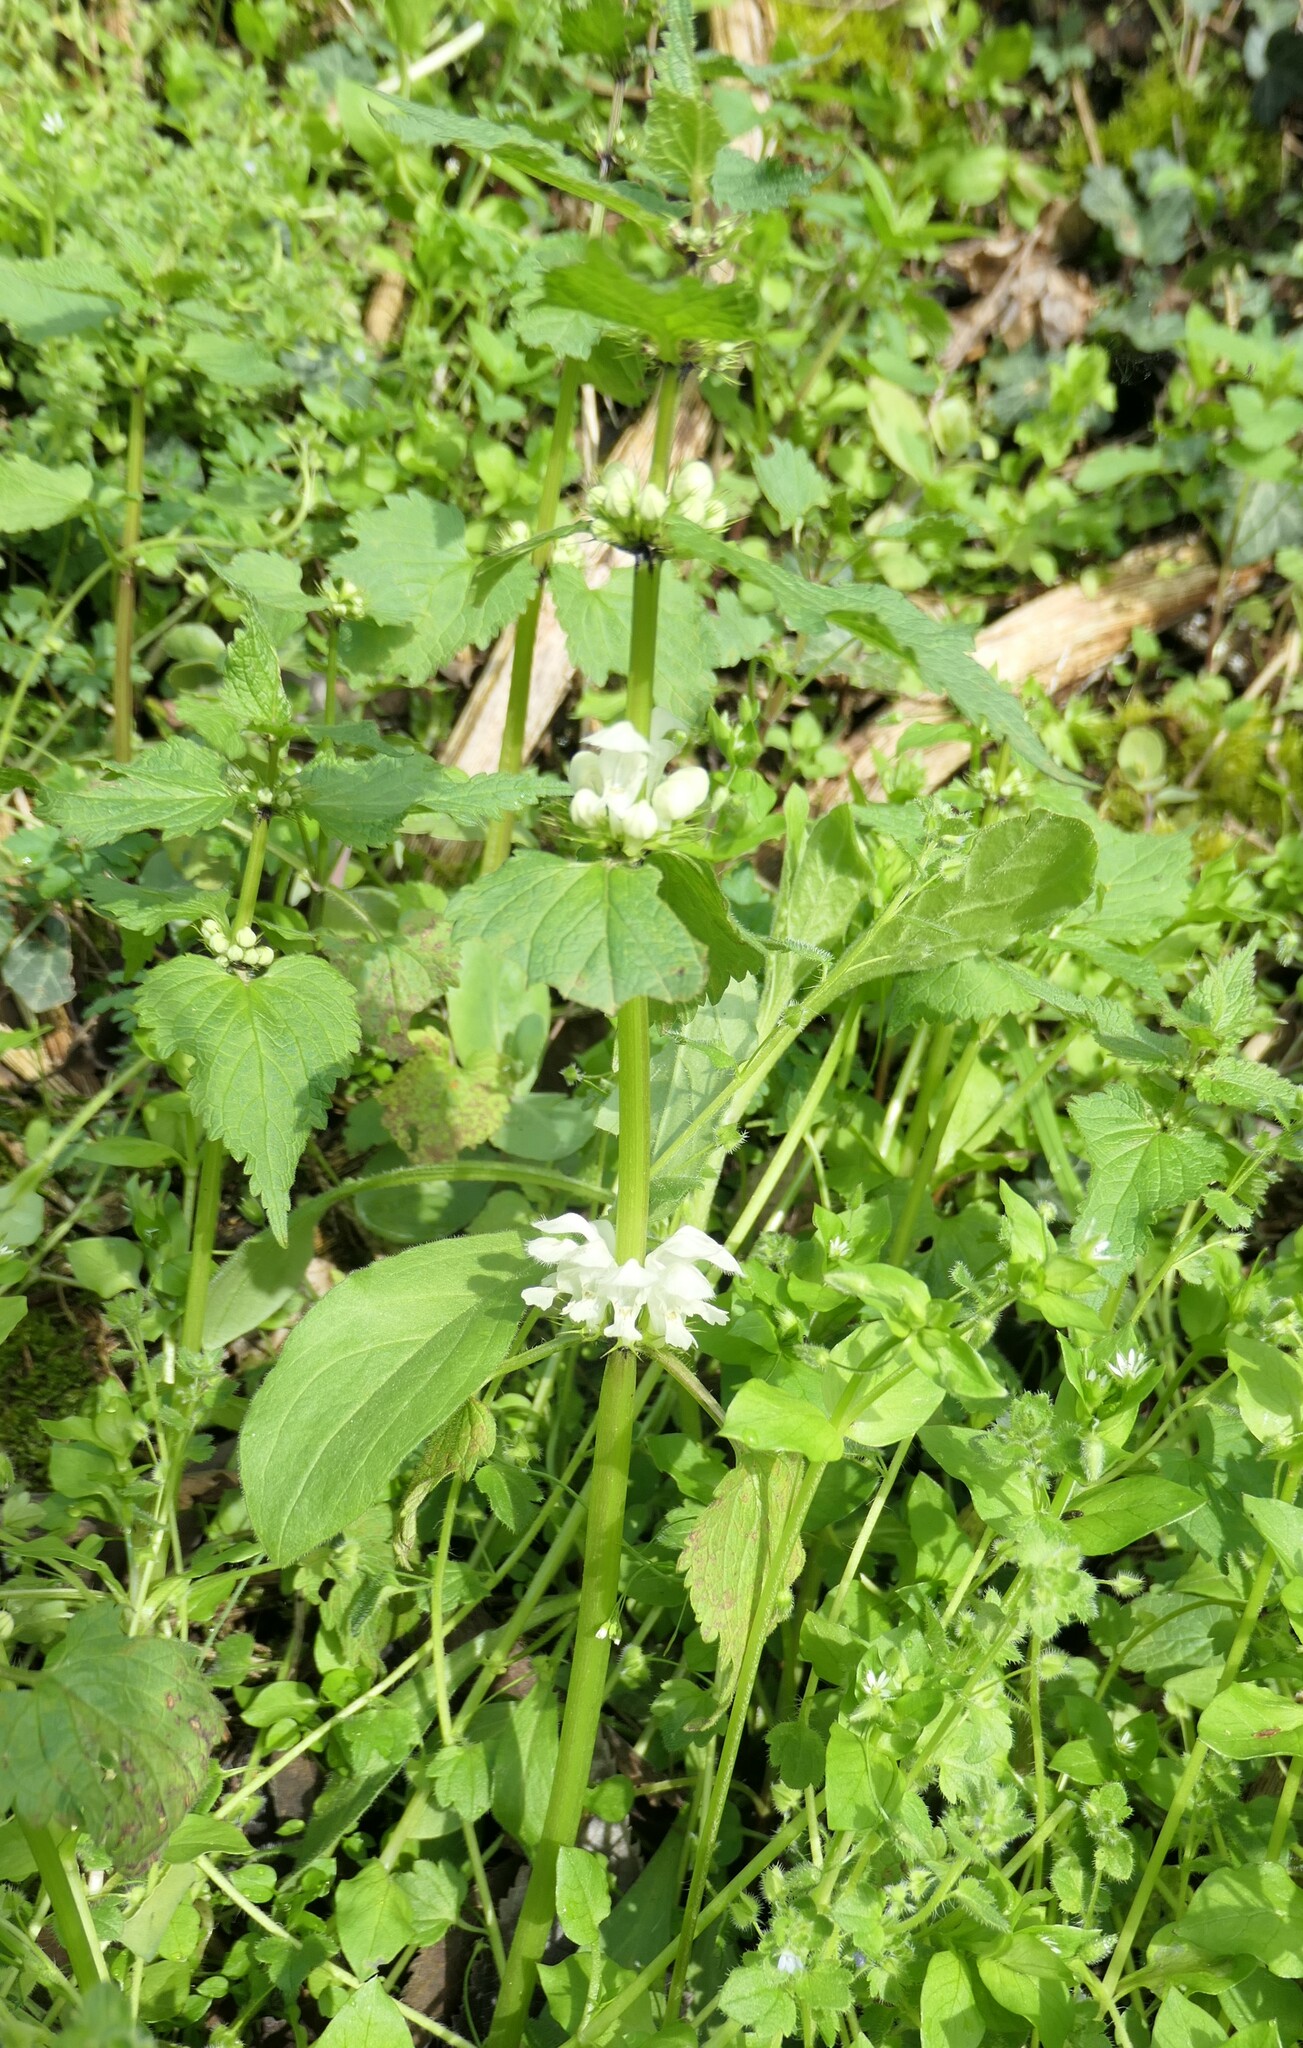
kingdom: Plantae
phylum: Tracheophyta
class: Magnoliopsida
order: Lamiales
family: Lamiaceae
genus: Lamium
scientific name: Lamium album
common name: White dead-nettle
